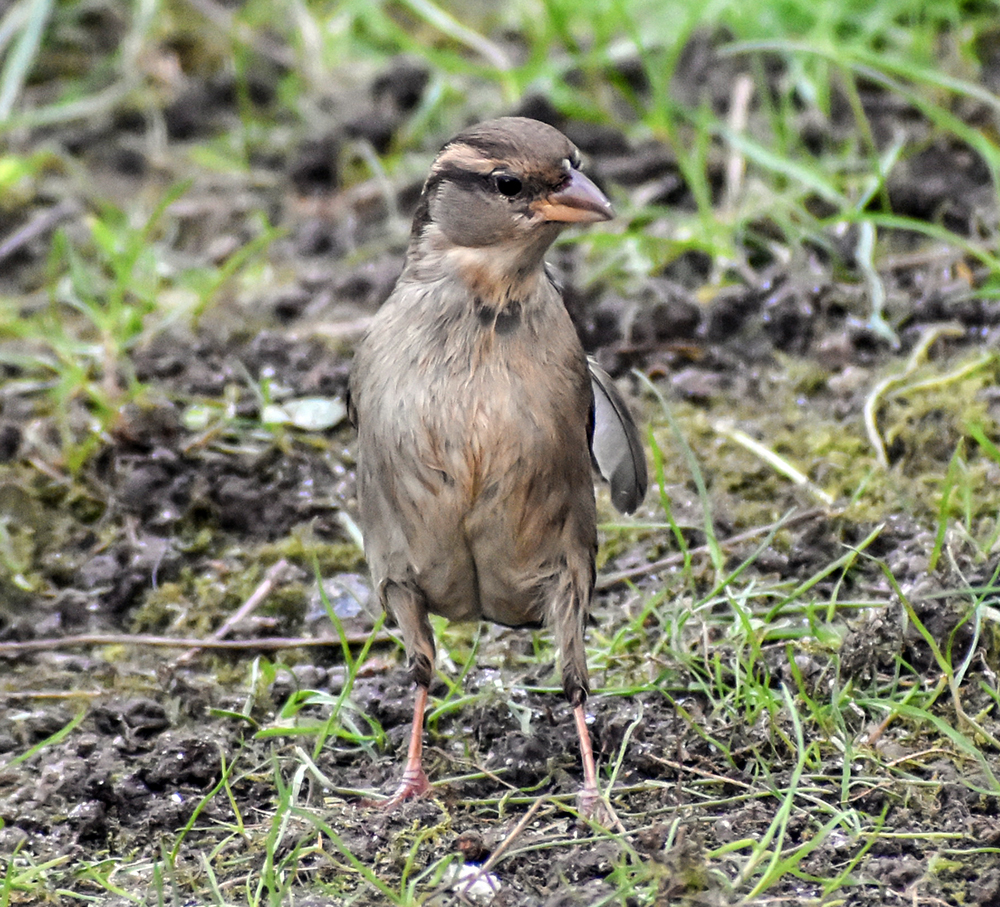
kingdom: Animalia
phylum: Chordata
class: Aves
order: Passeriformes
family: Passeridae
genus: Passer
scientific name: Passer italiae
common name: Italian sparrow
